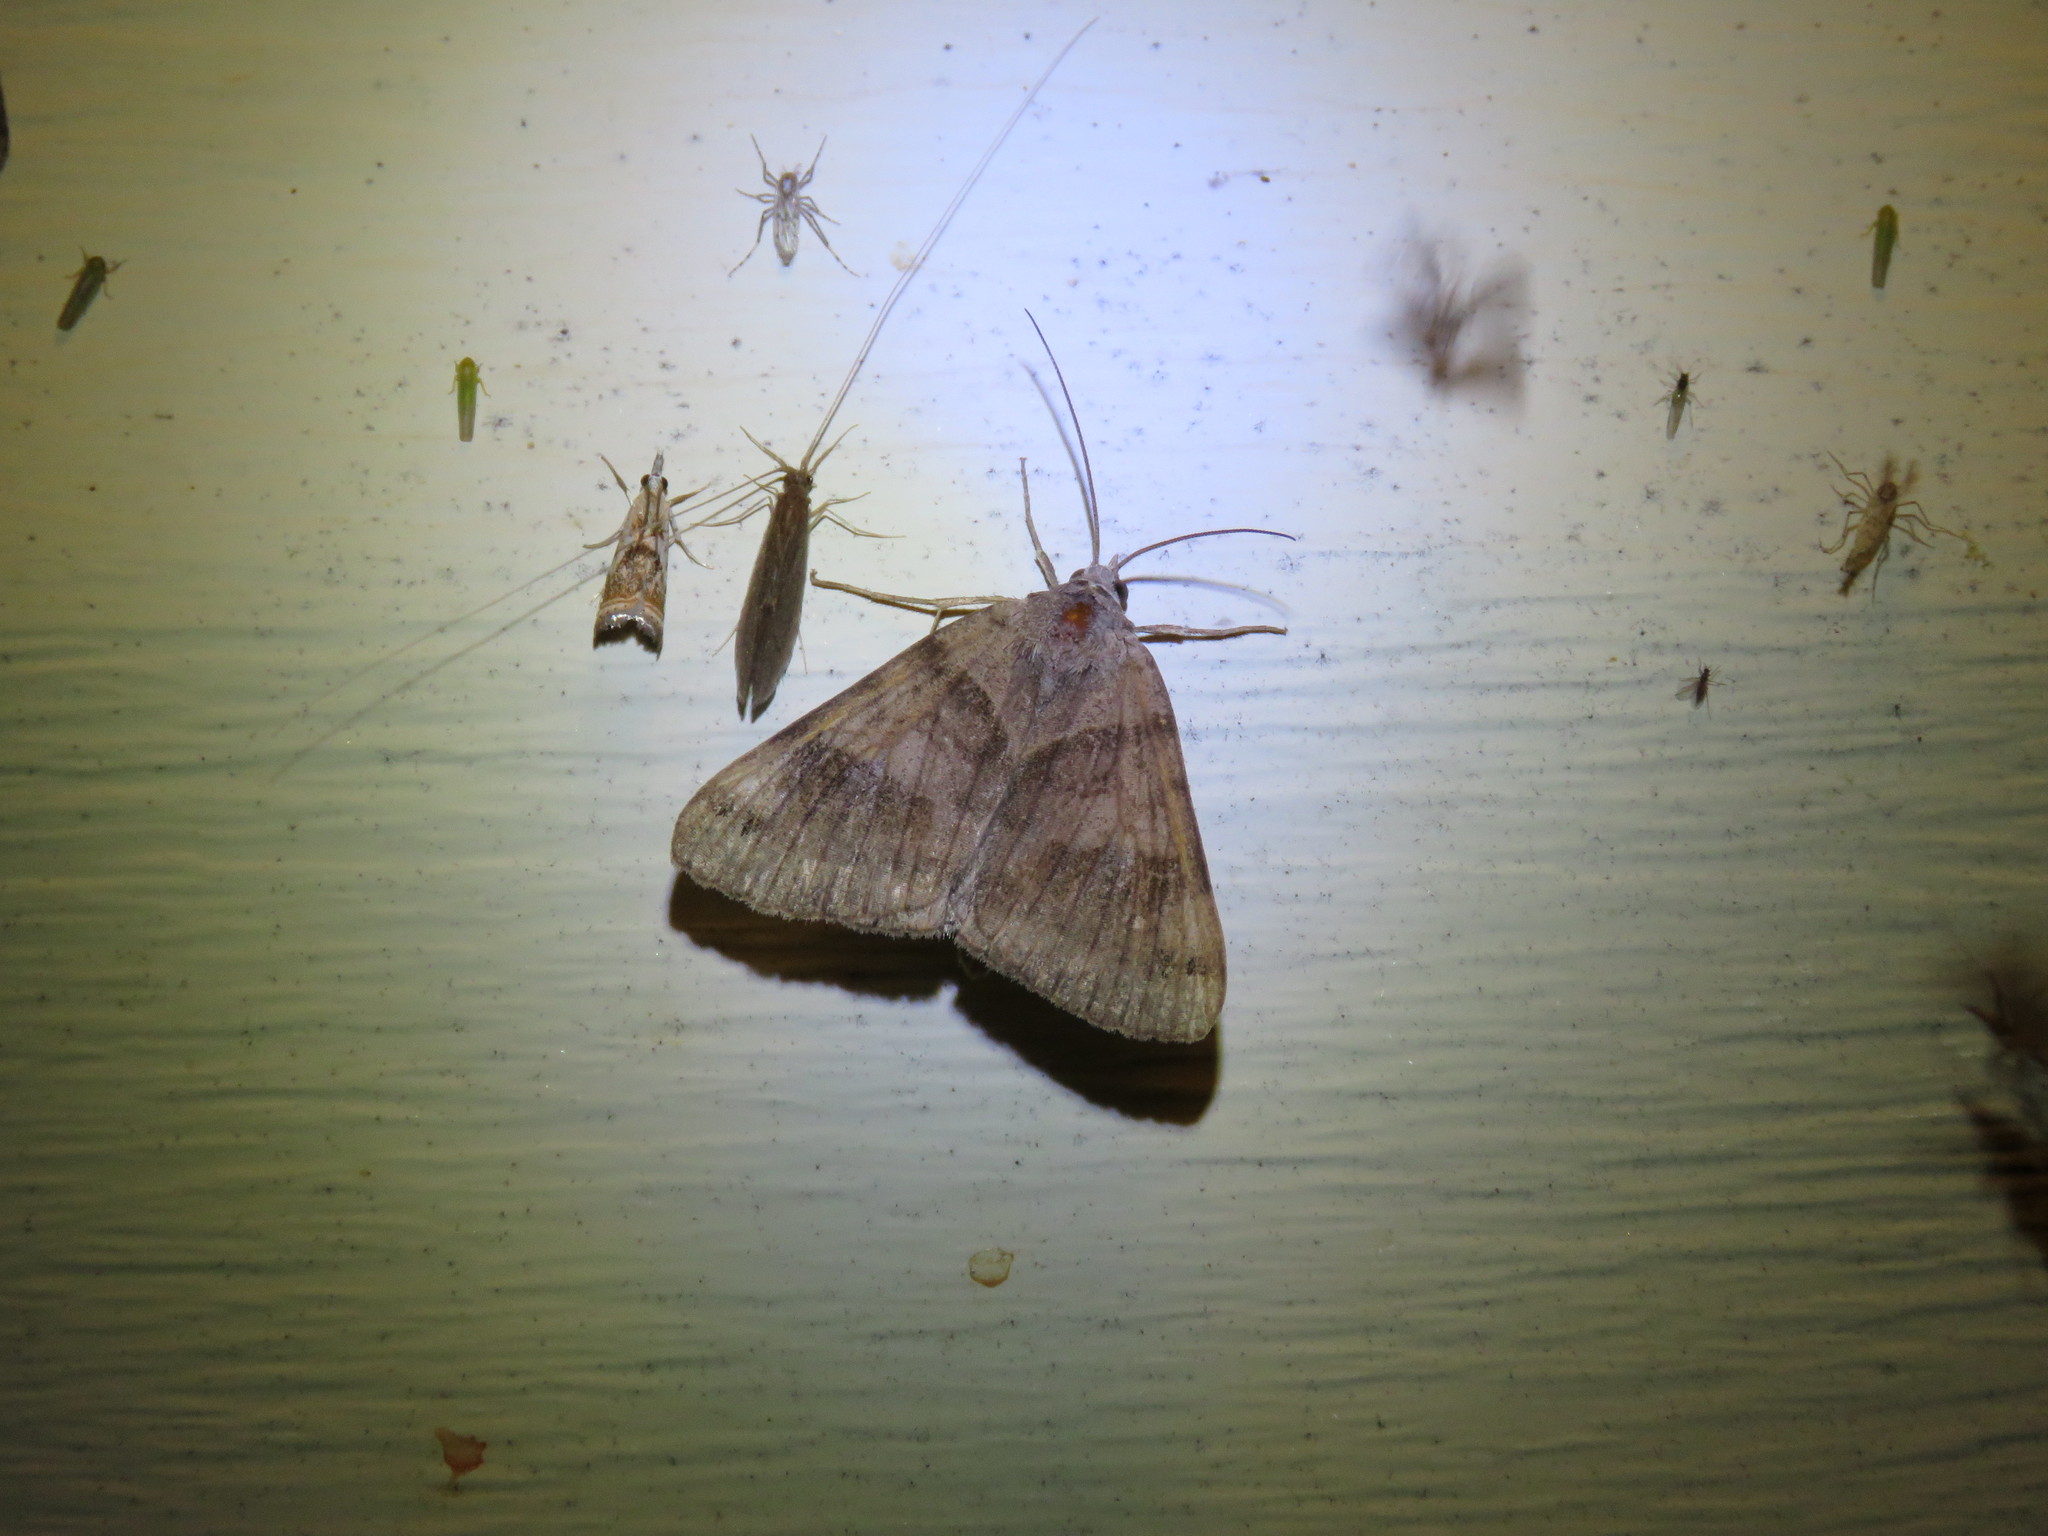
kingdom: Animalia
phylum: Arthropoda
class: Insecta
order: Lepidoptera
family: Erebidae
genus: Caenurgina
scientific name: Caenurgina crassiuscula
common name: Double-barred
